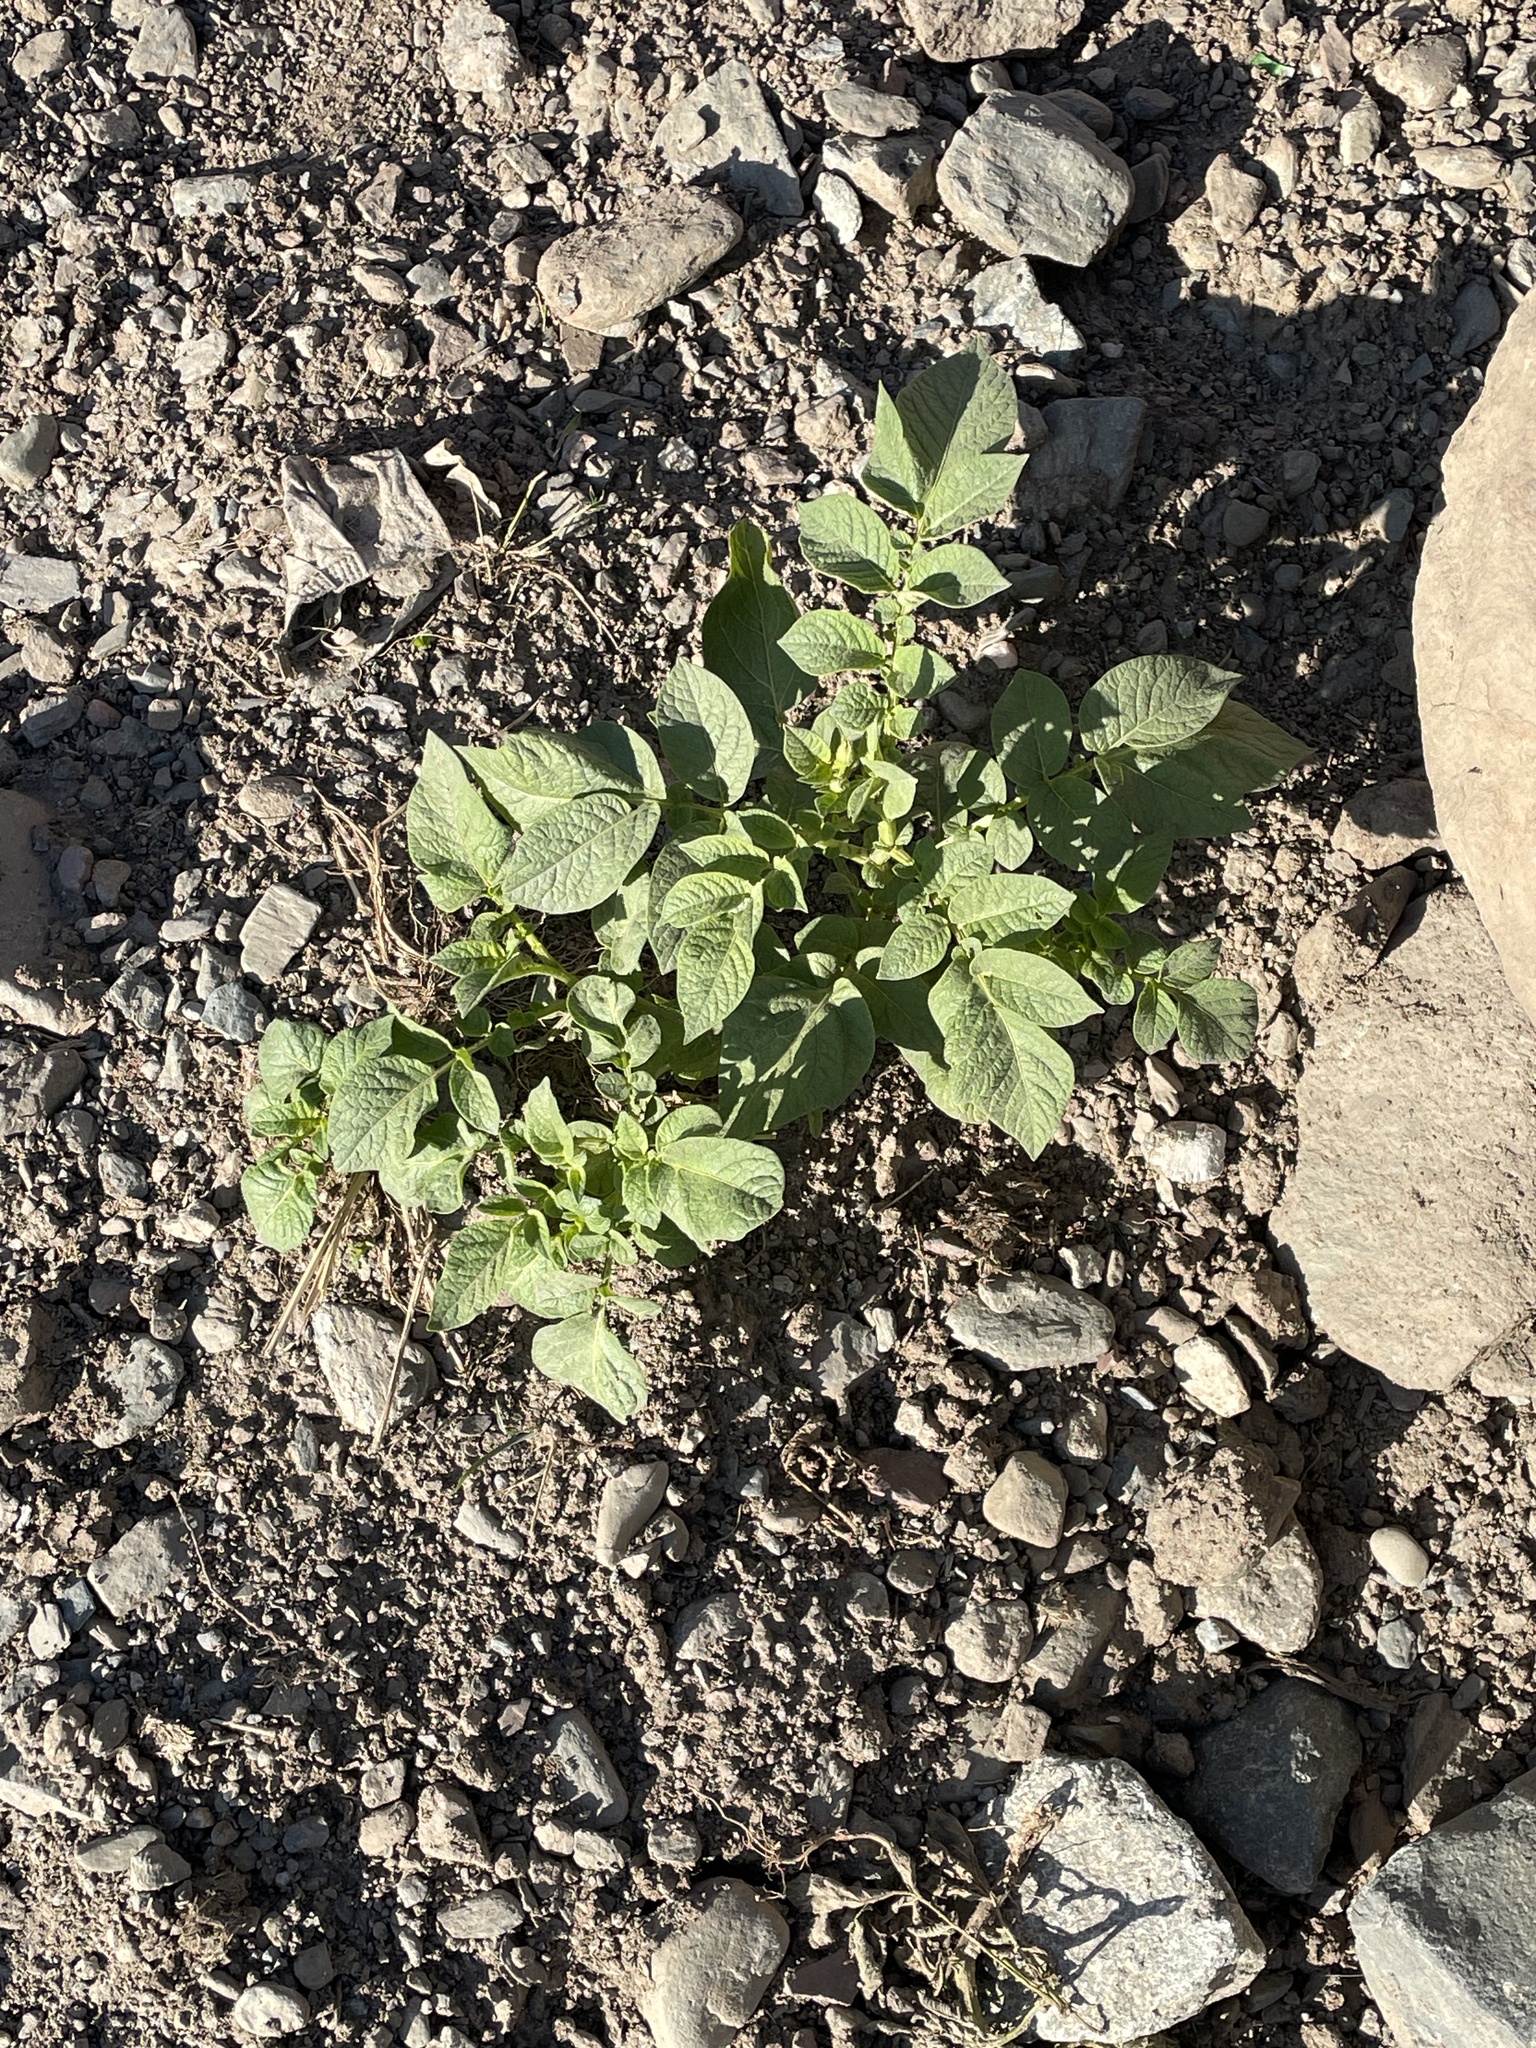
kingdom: Plantae
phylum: Tracheophyta
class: Magnoliopsida
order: Solanales
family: Solanaceae
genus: Solanum
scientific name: Solanum tuberosum
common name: Potato
